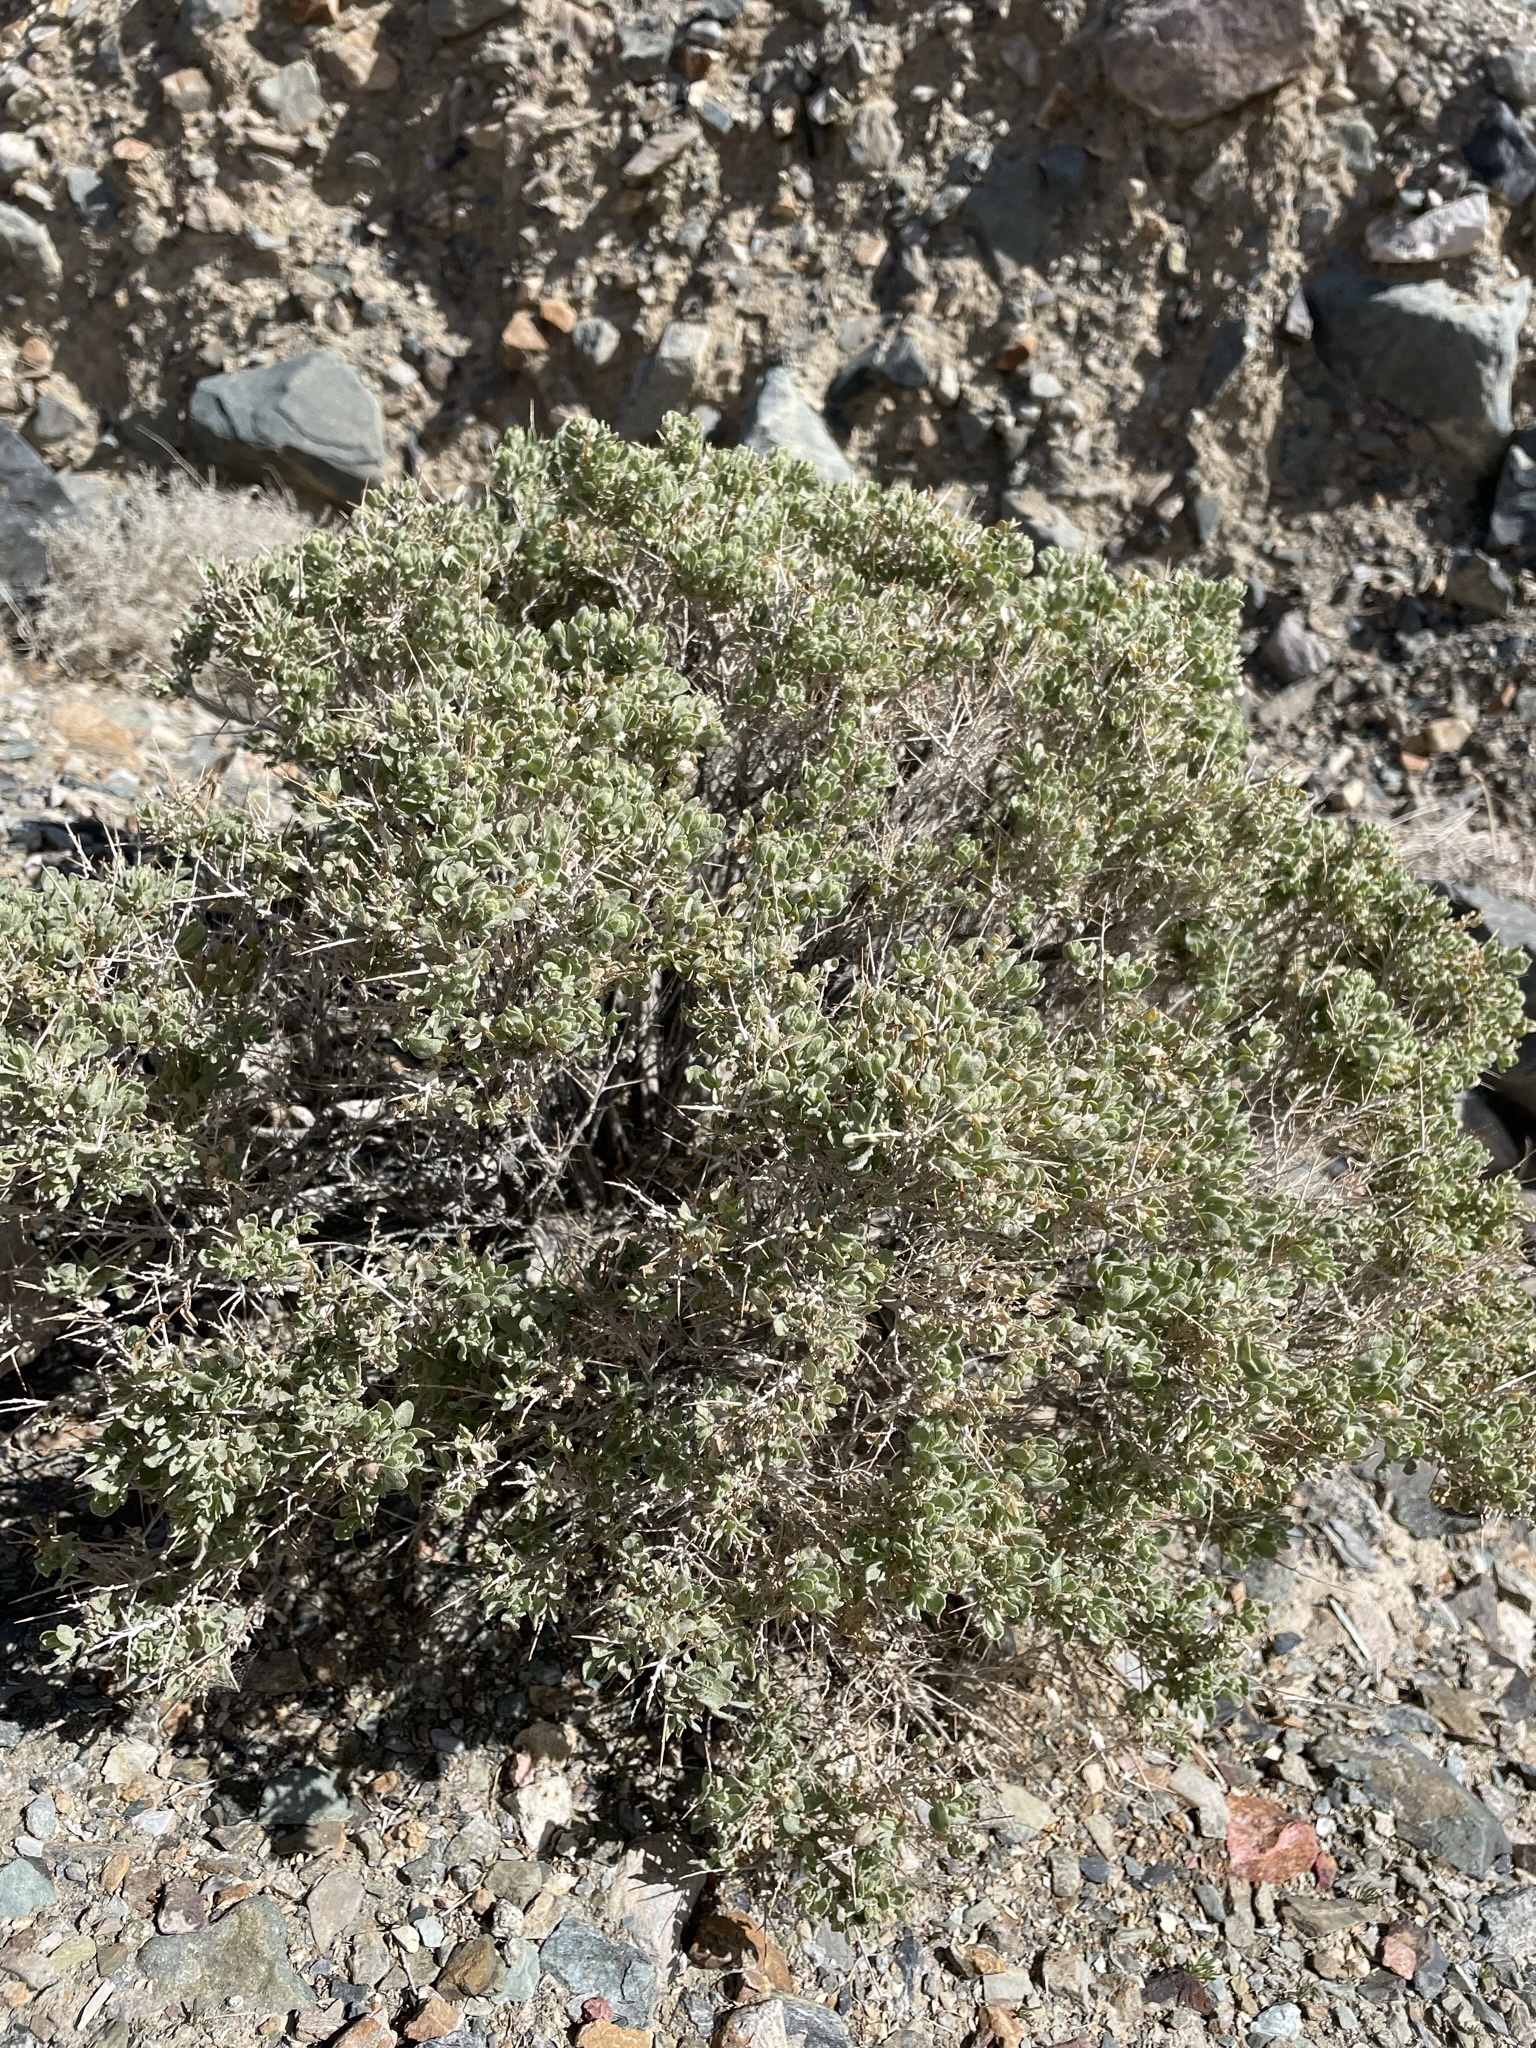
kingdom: Plantae
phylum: Tracheophyta
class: Magnoliopsida
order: Caryophyllales
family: Amaranthaceae
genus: Atriplex
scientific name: Atriplex confertifolia
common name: Shadscale
